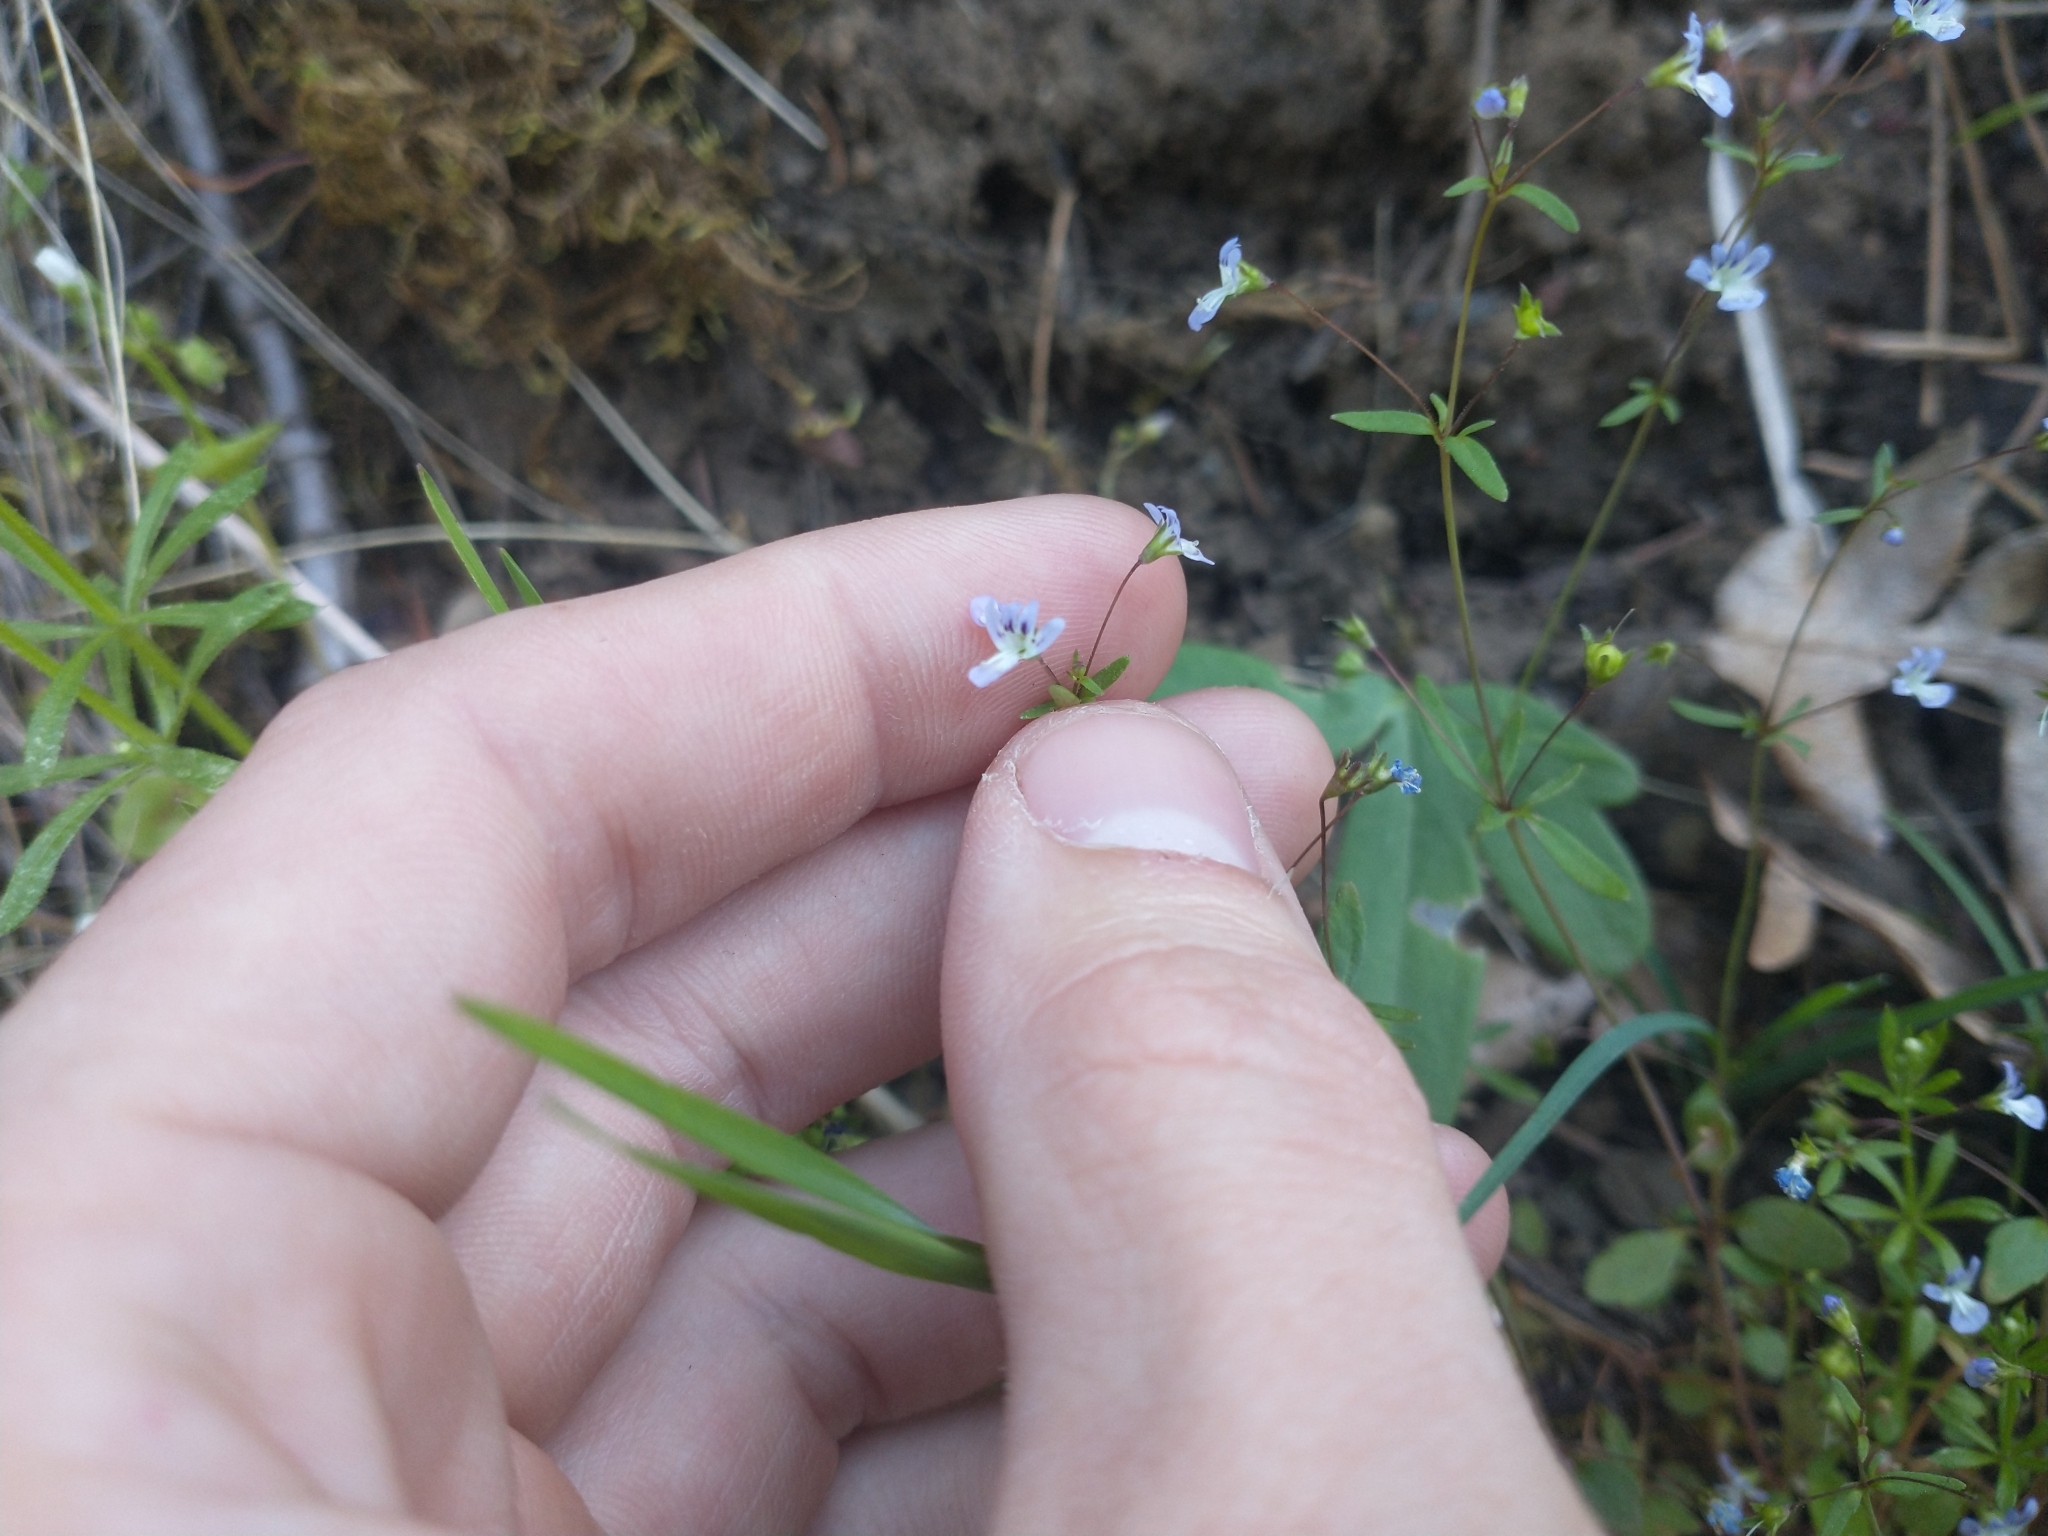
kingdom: Plantae
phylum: Tracheophyta
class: Magnoliopsida
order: Lamiales
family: Plantaginaceae
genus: Tonella
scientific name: Tonella tenella
